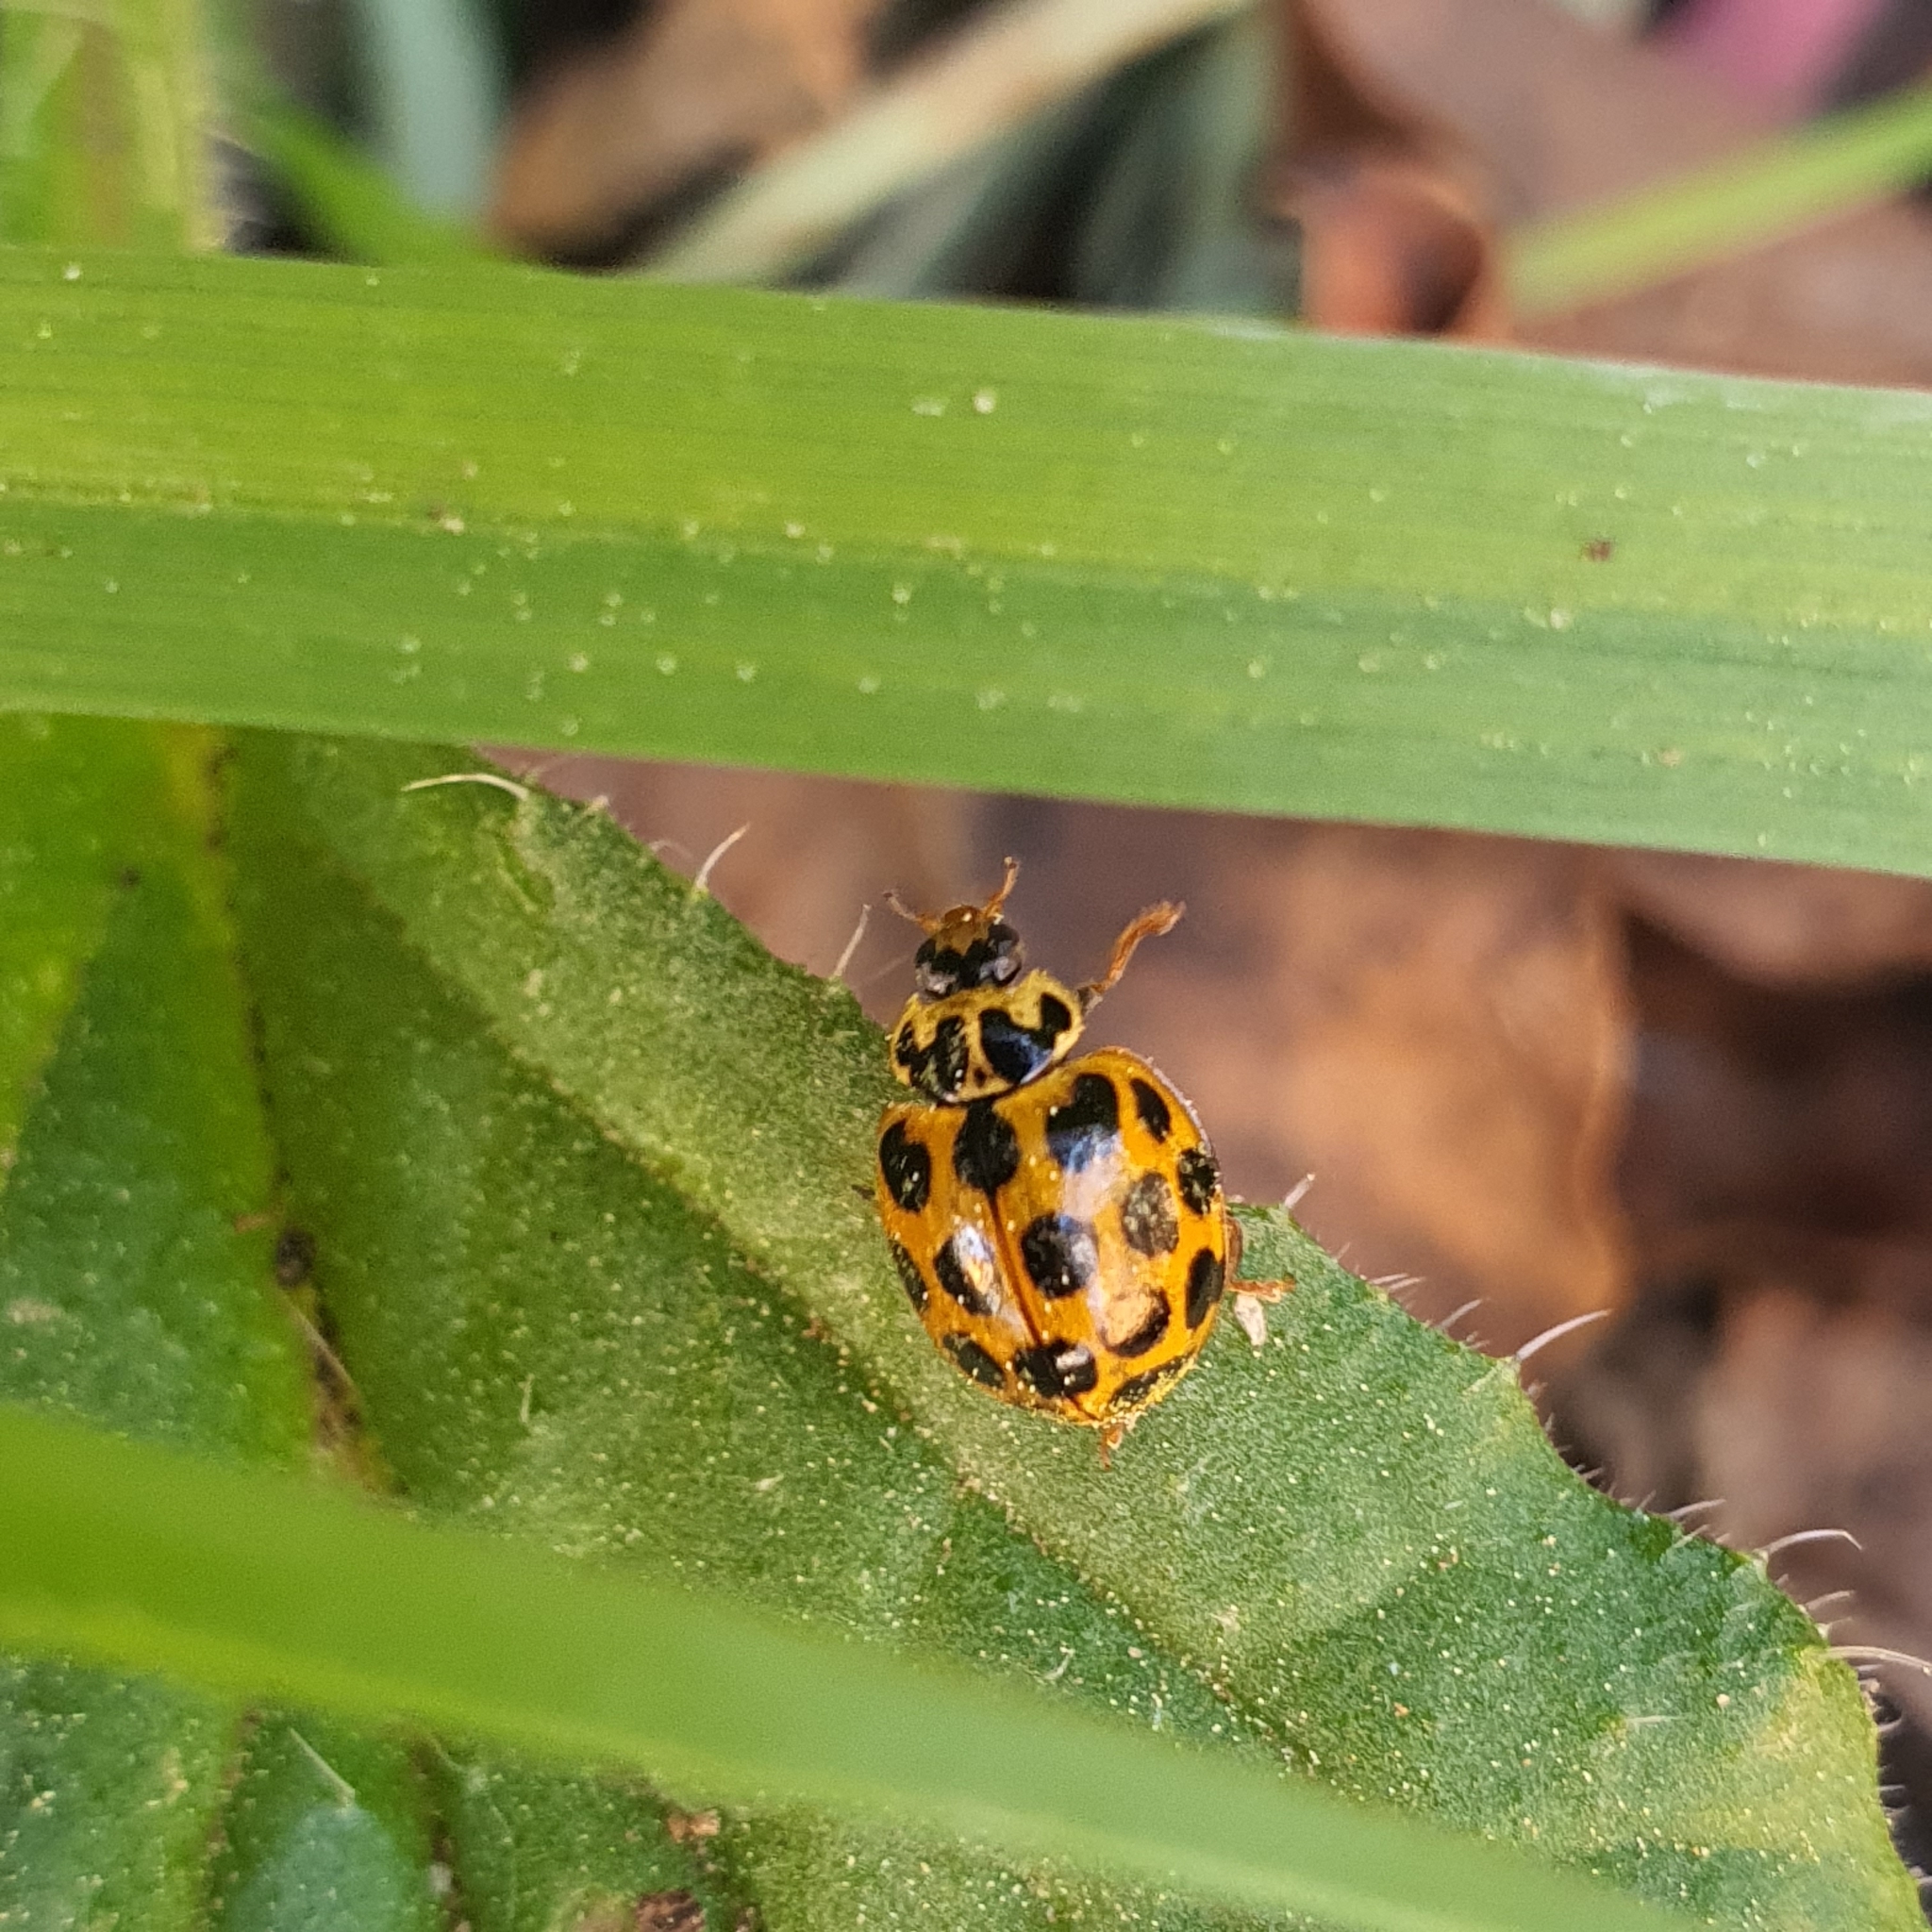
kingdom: Animalia
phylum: Arthropoda
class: Insecta
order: Coleoptera
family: Coccinellidae
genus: Harmonia
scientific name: Harmonia conformis
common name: Common spotted ladybird beetle
